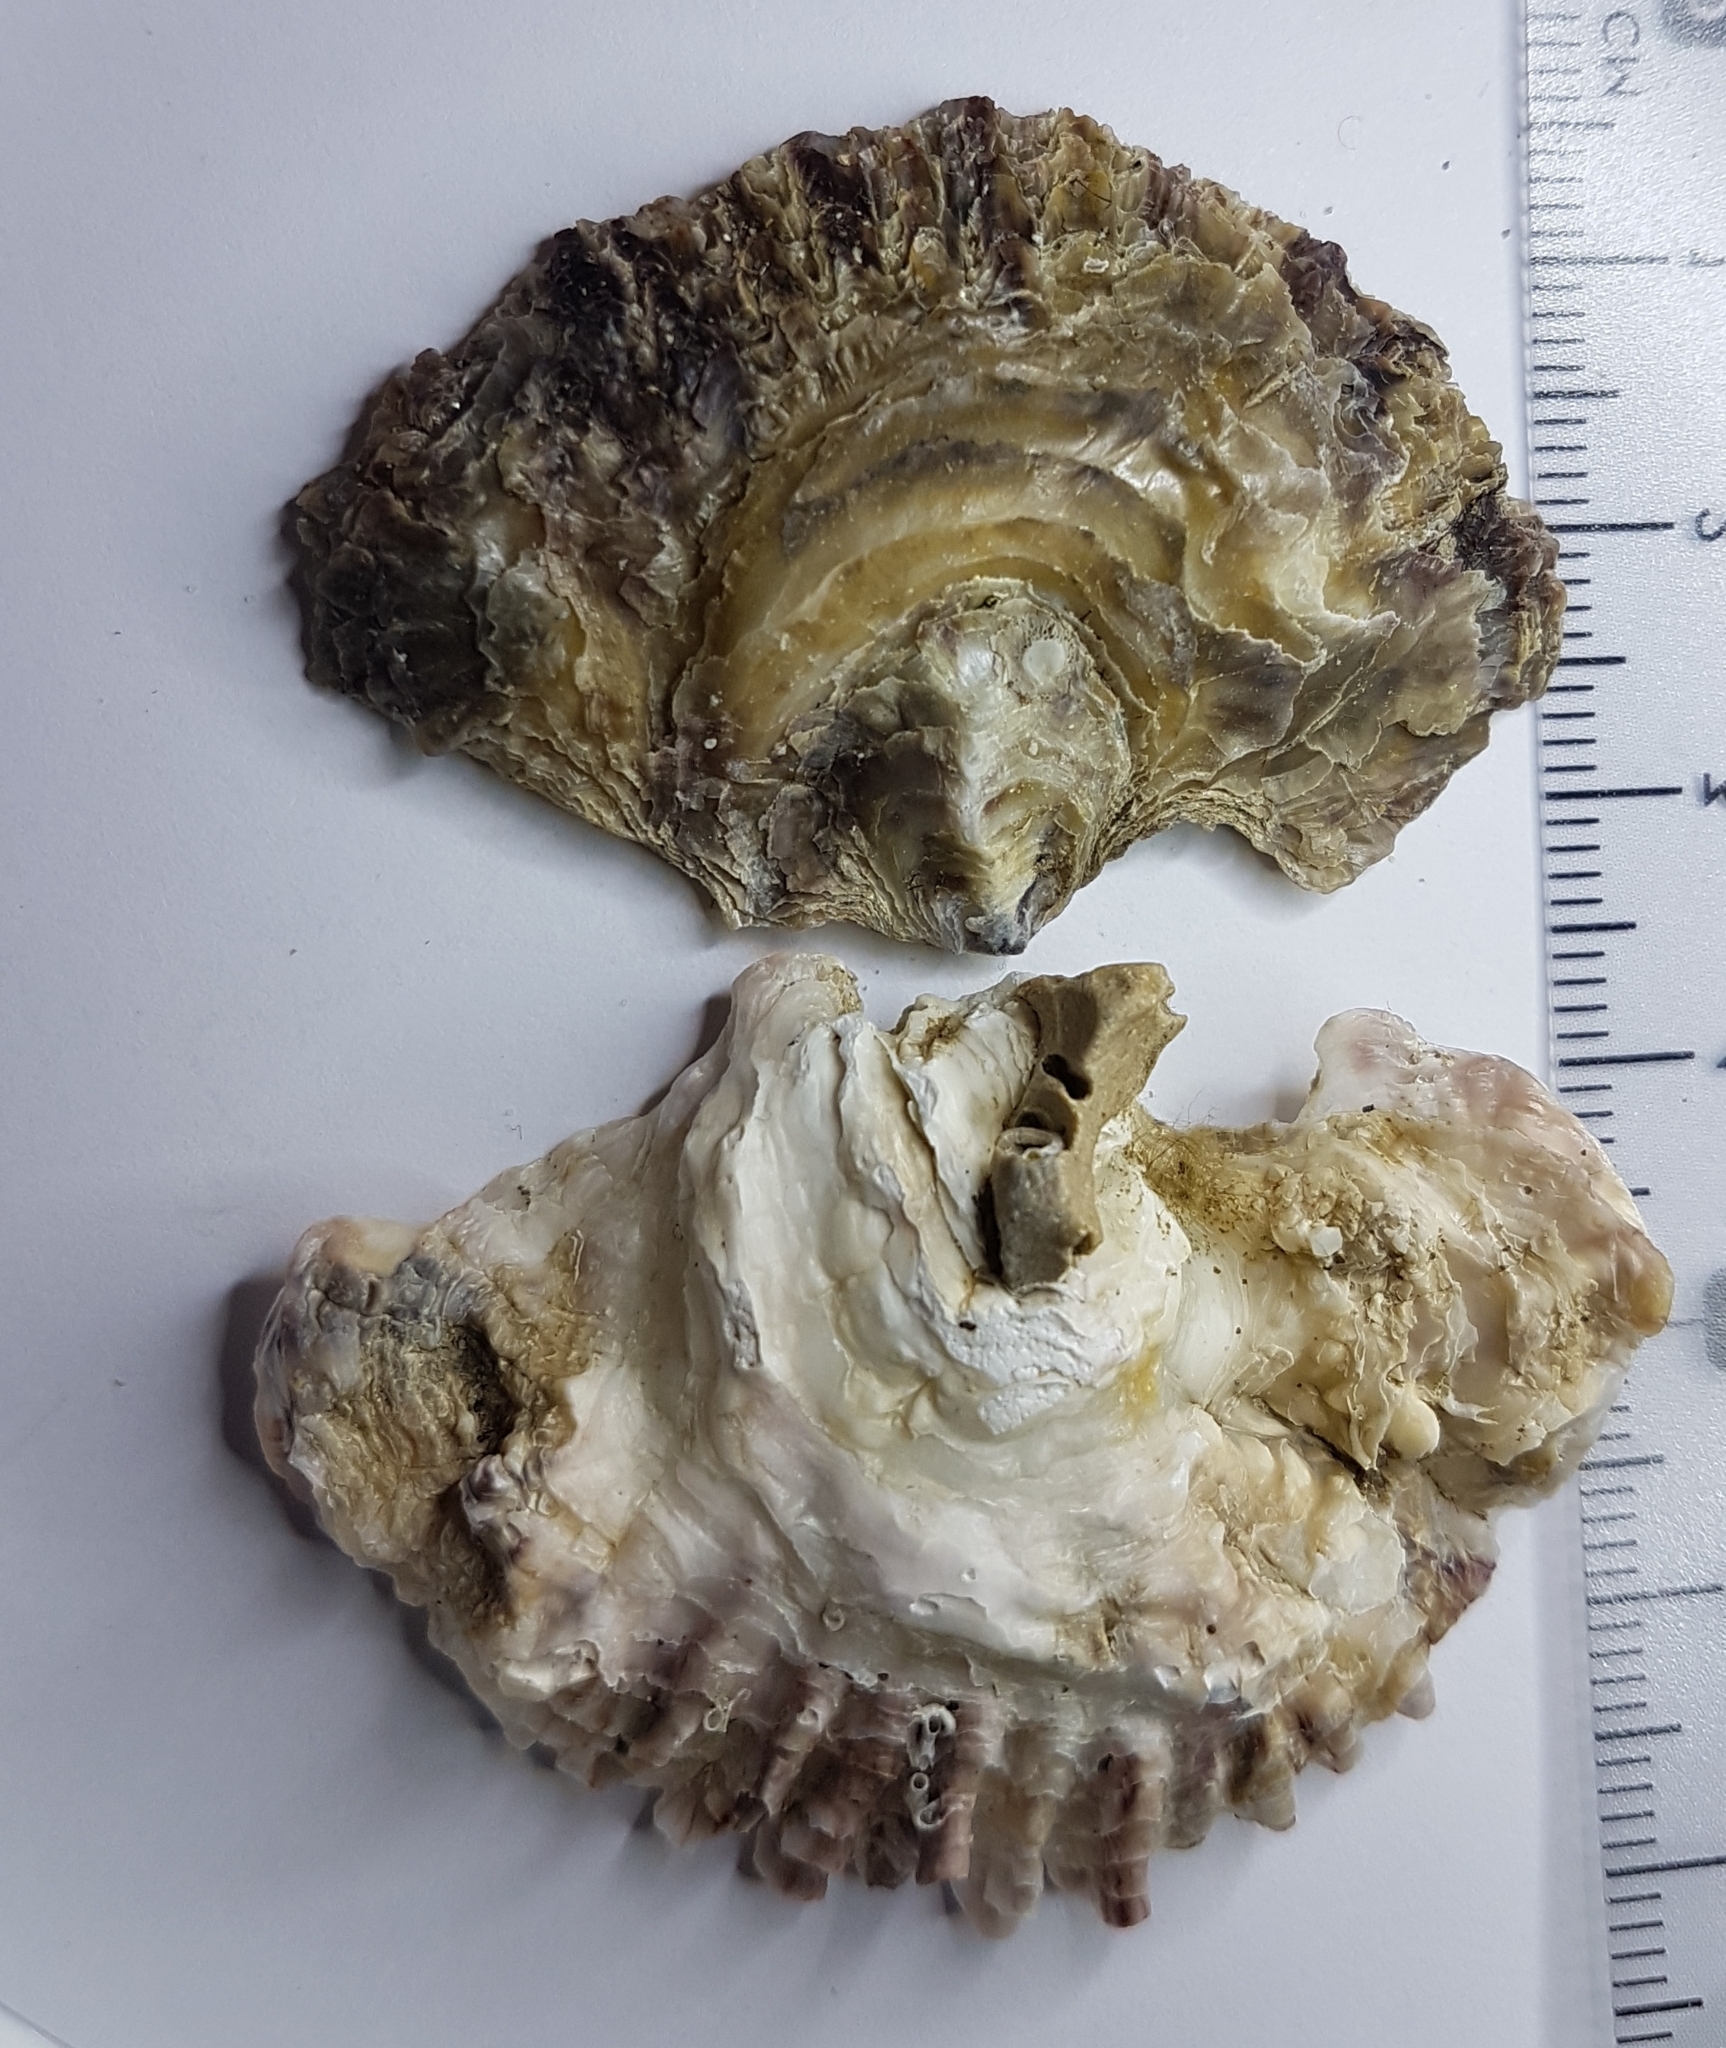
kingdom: Animalia
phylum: Mollusca
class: Bivalvia
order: Ostreida
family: Ostreidae
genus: Ostrea
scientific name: Ostrea edulis
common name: Flat oyster
